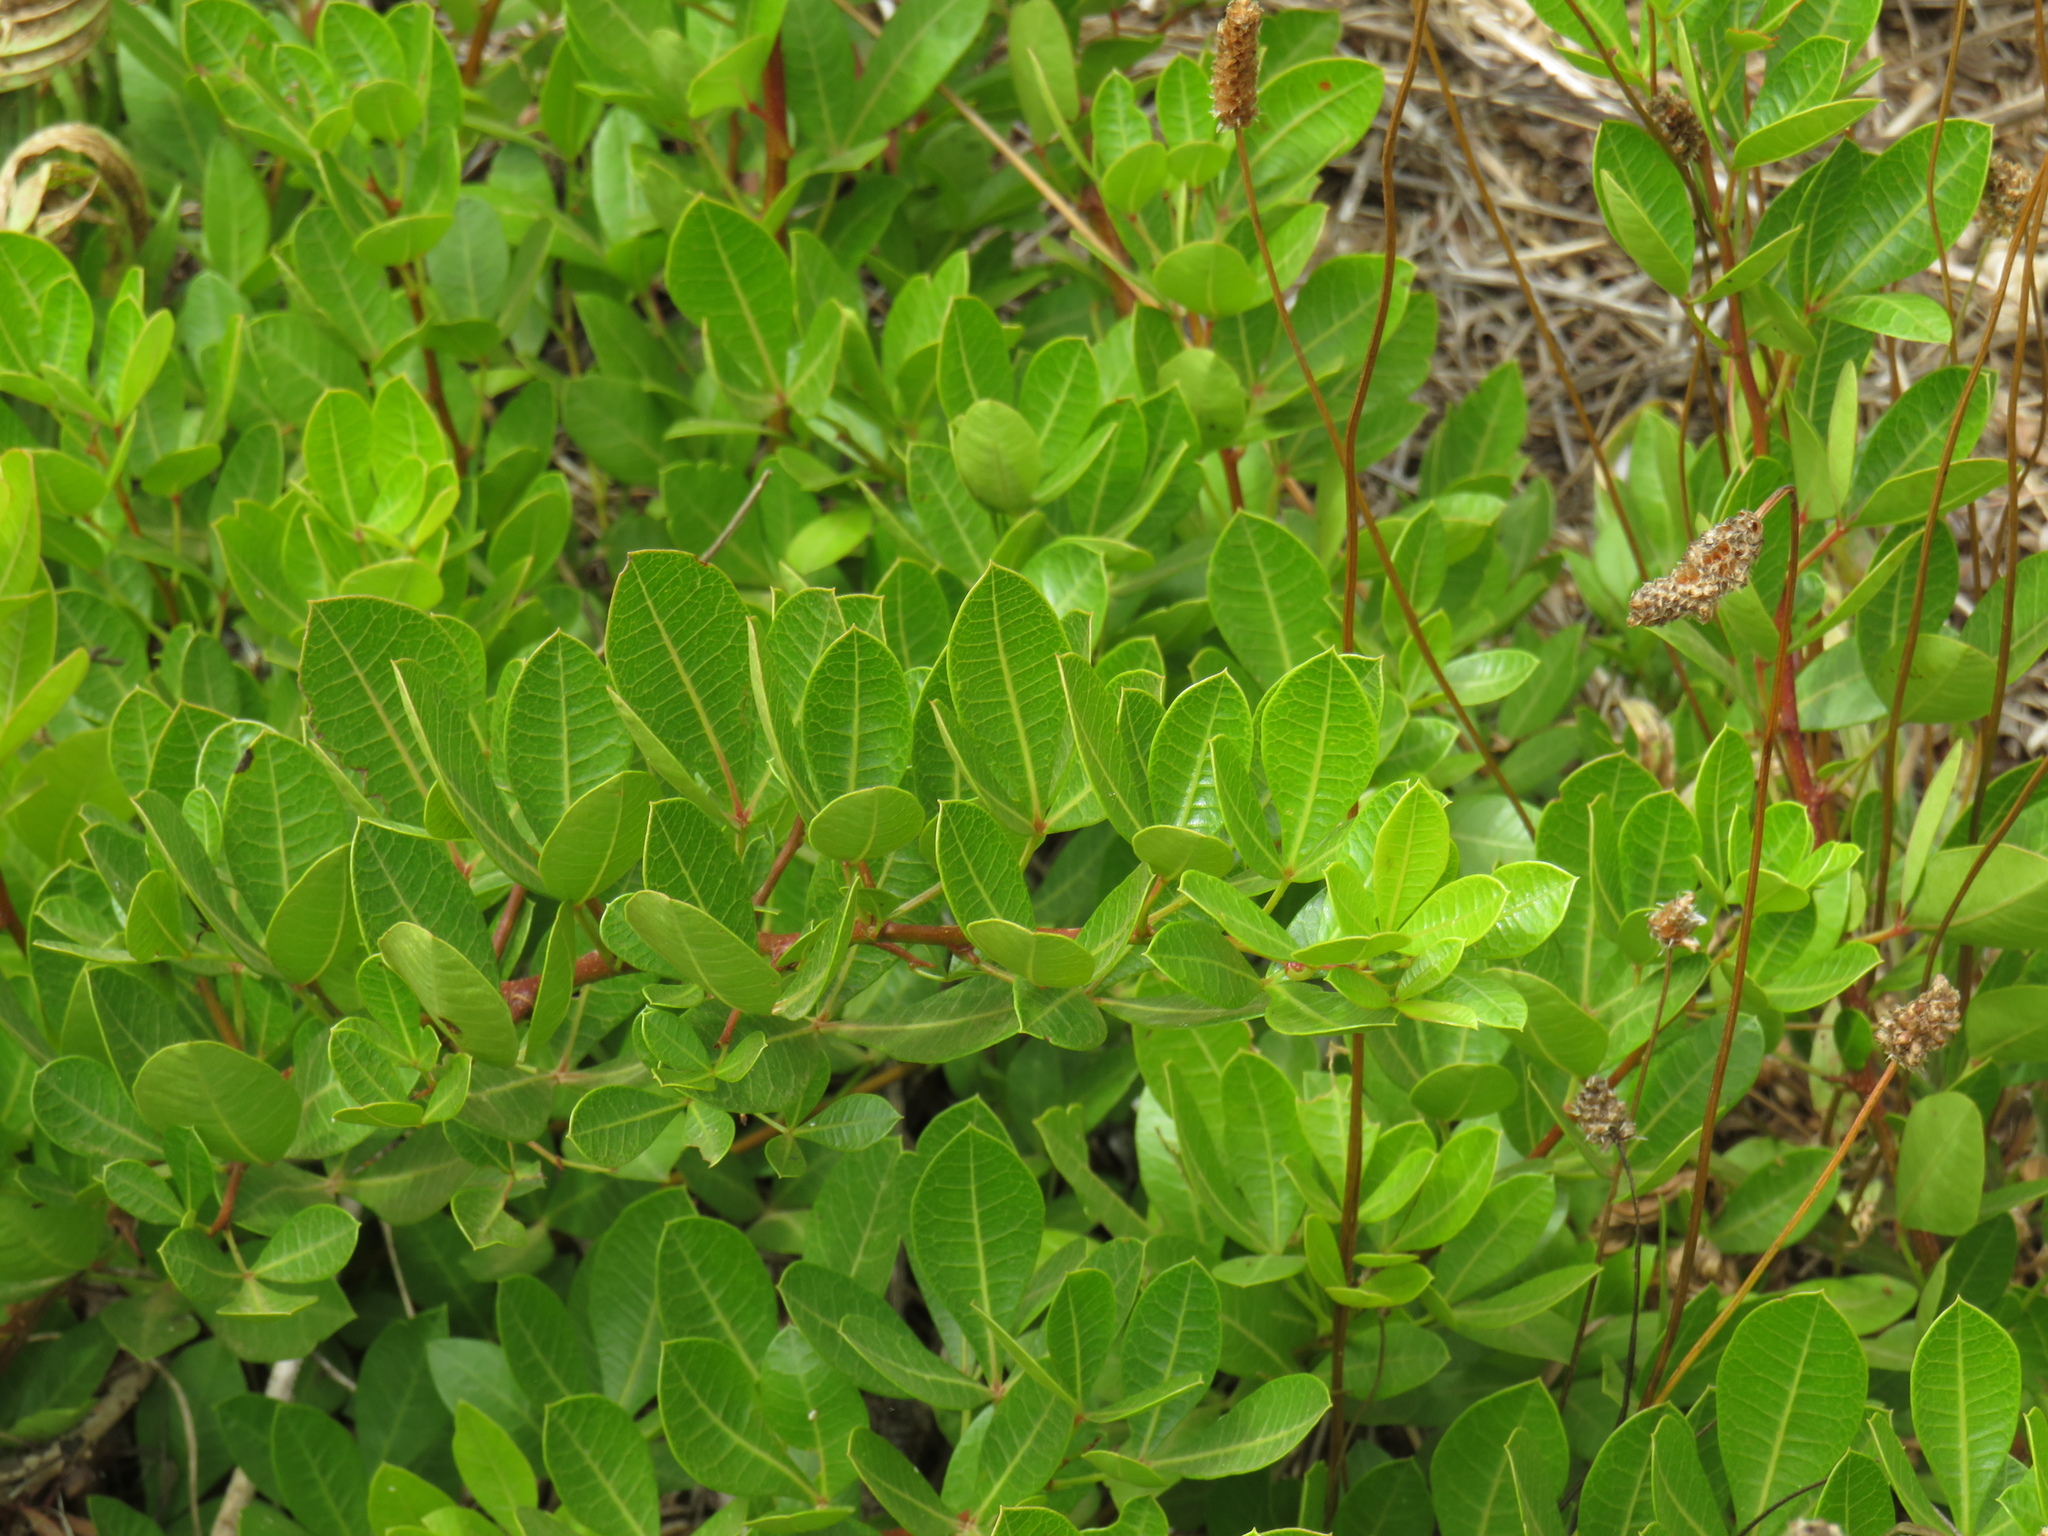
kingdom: Plantae
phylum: Tracheophyta
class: Magnoliopsida
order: Sapindales
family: Anacardiaceae
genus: Searsia
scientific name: Searsia laevigata
